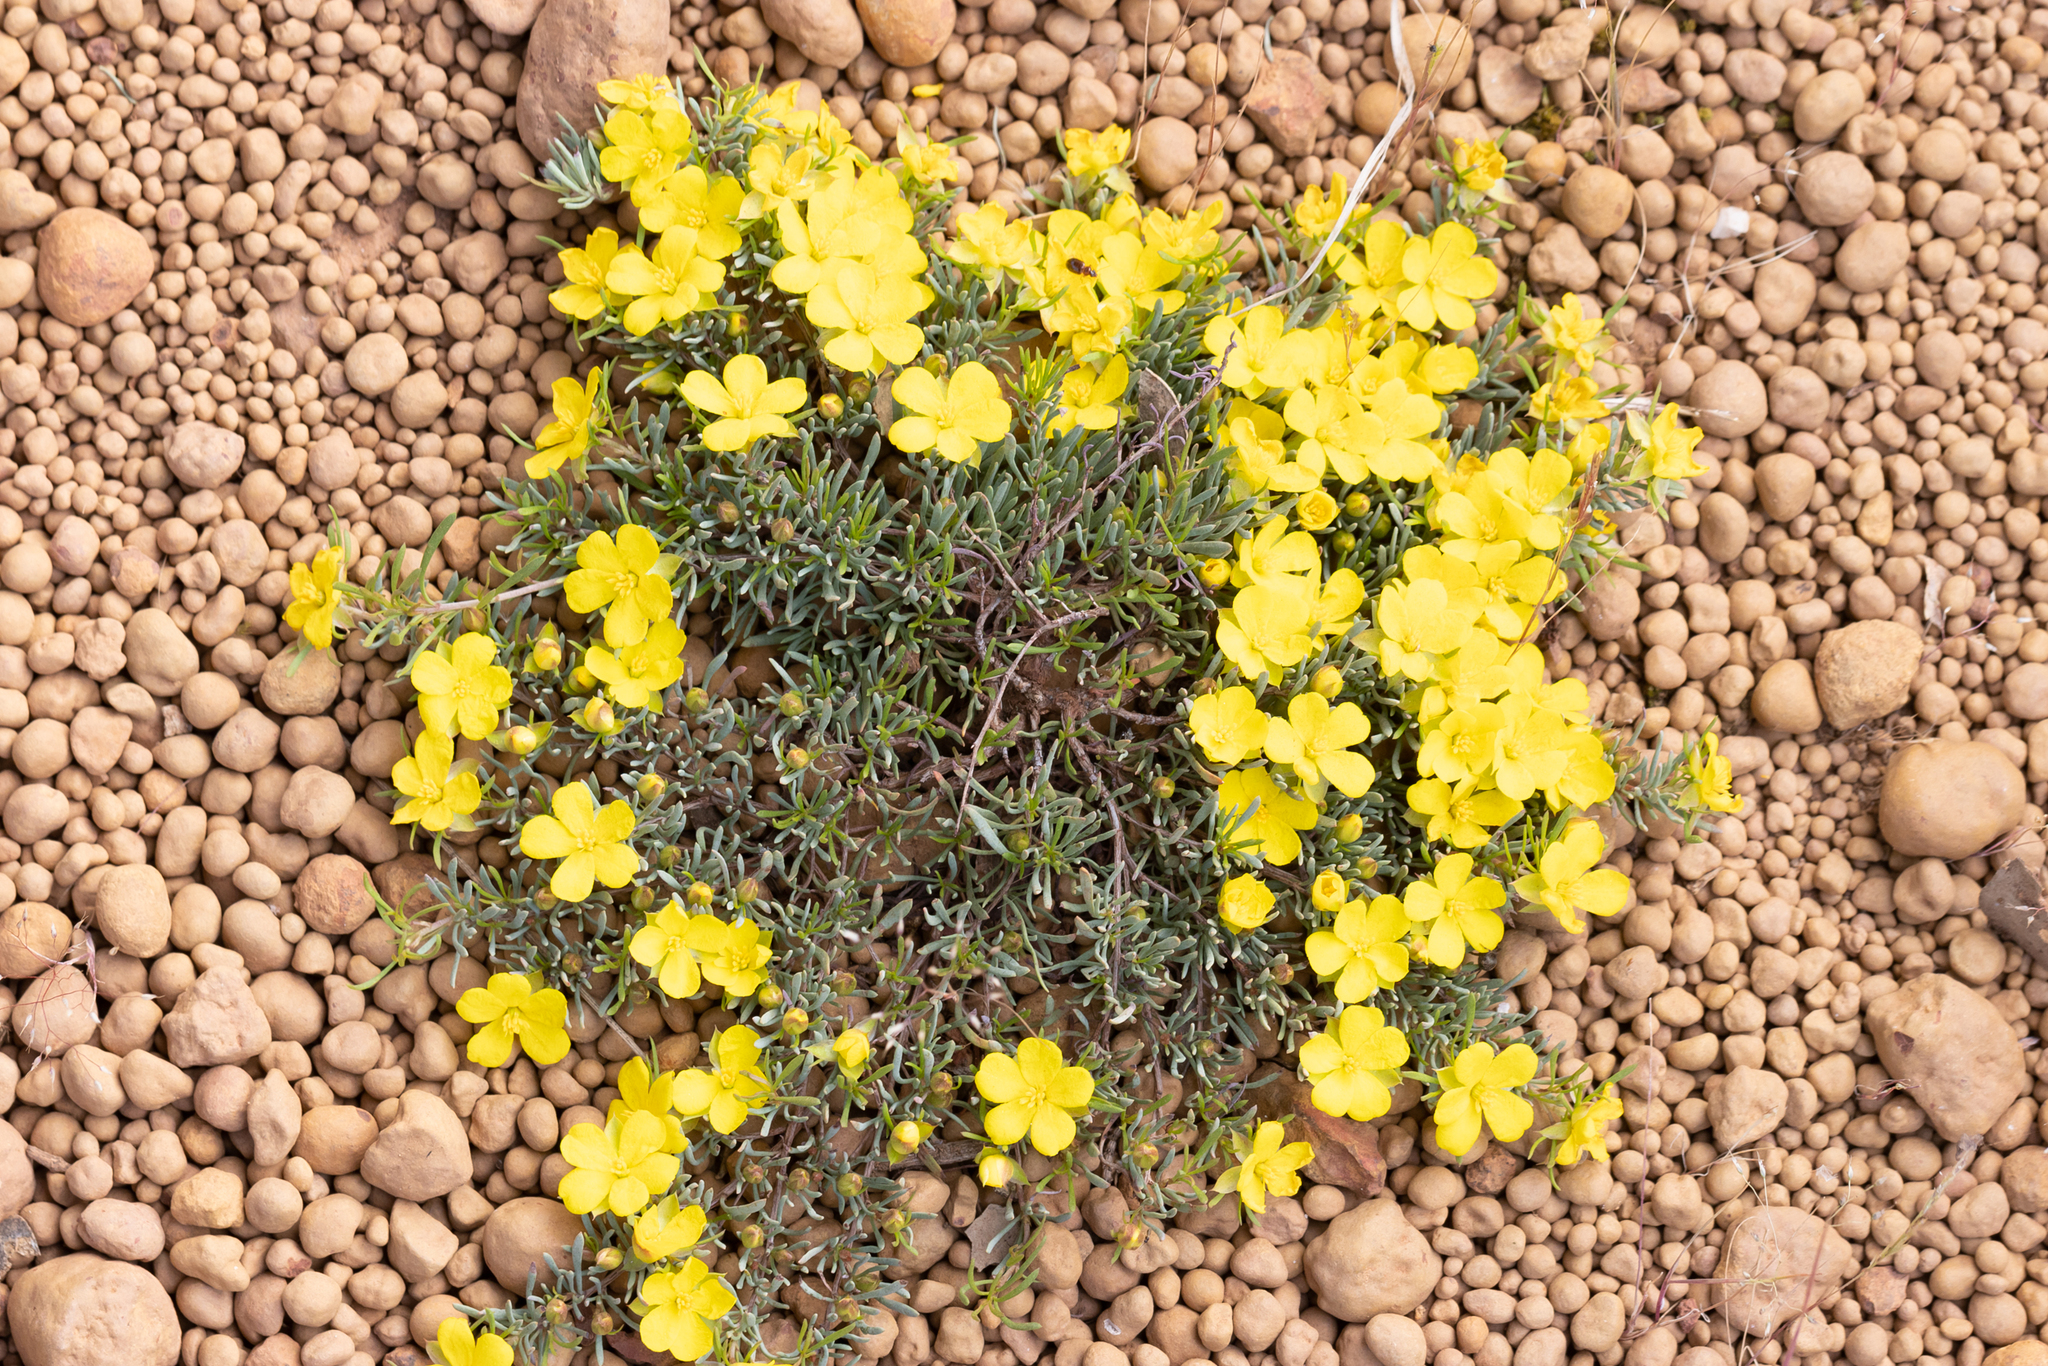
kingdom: Plantae
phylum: Tracheophyta
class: Magnoliopsida
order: Dilleniales
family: Dilleniaceae
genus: Hibbertia
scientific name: Hibbertia hibbertioides
